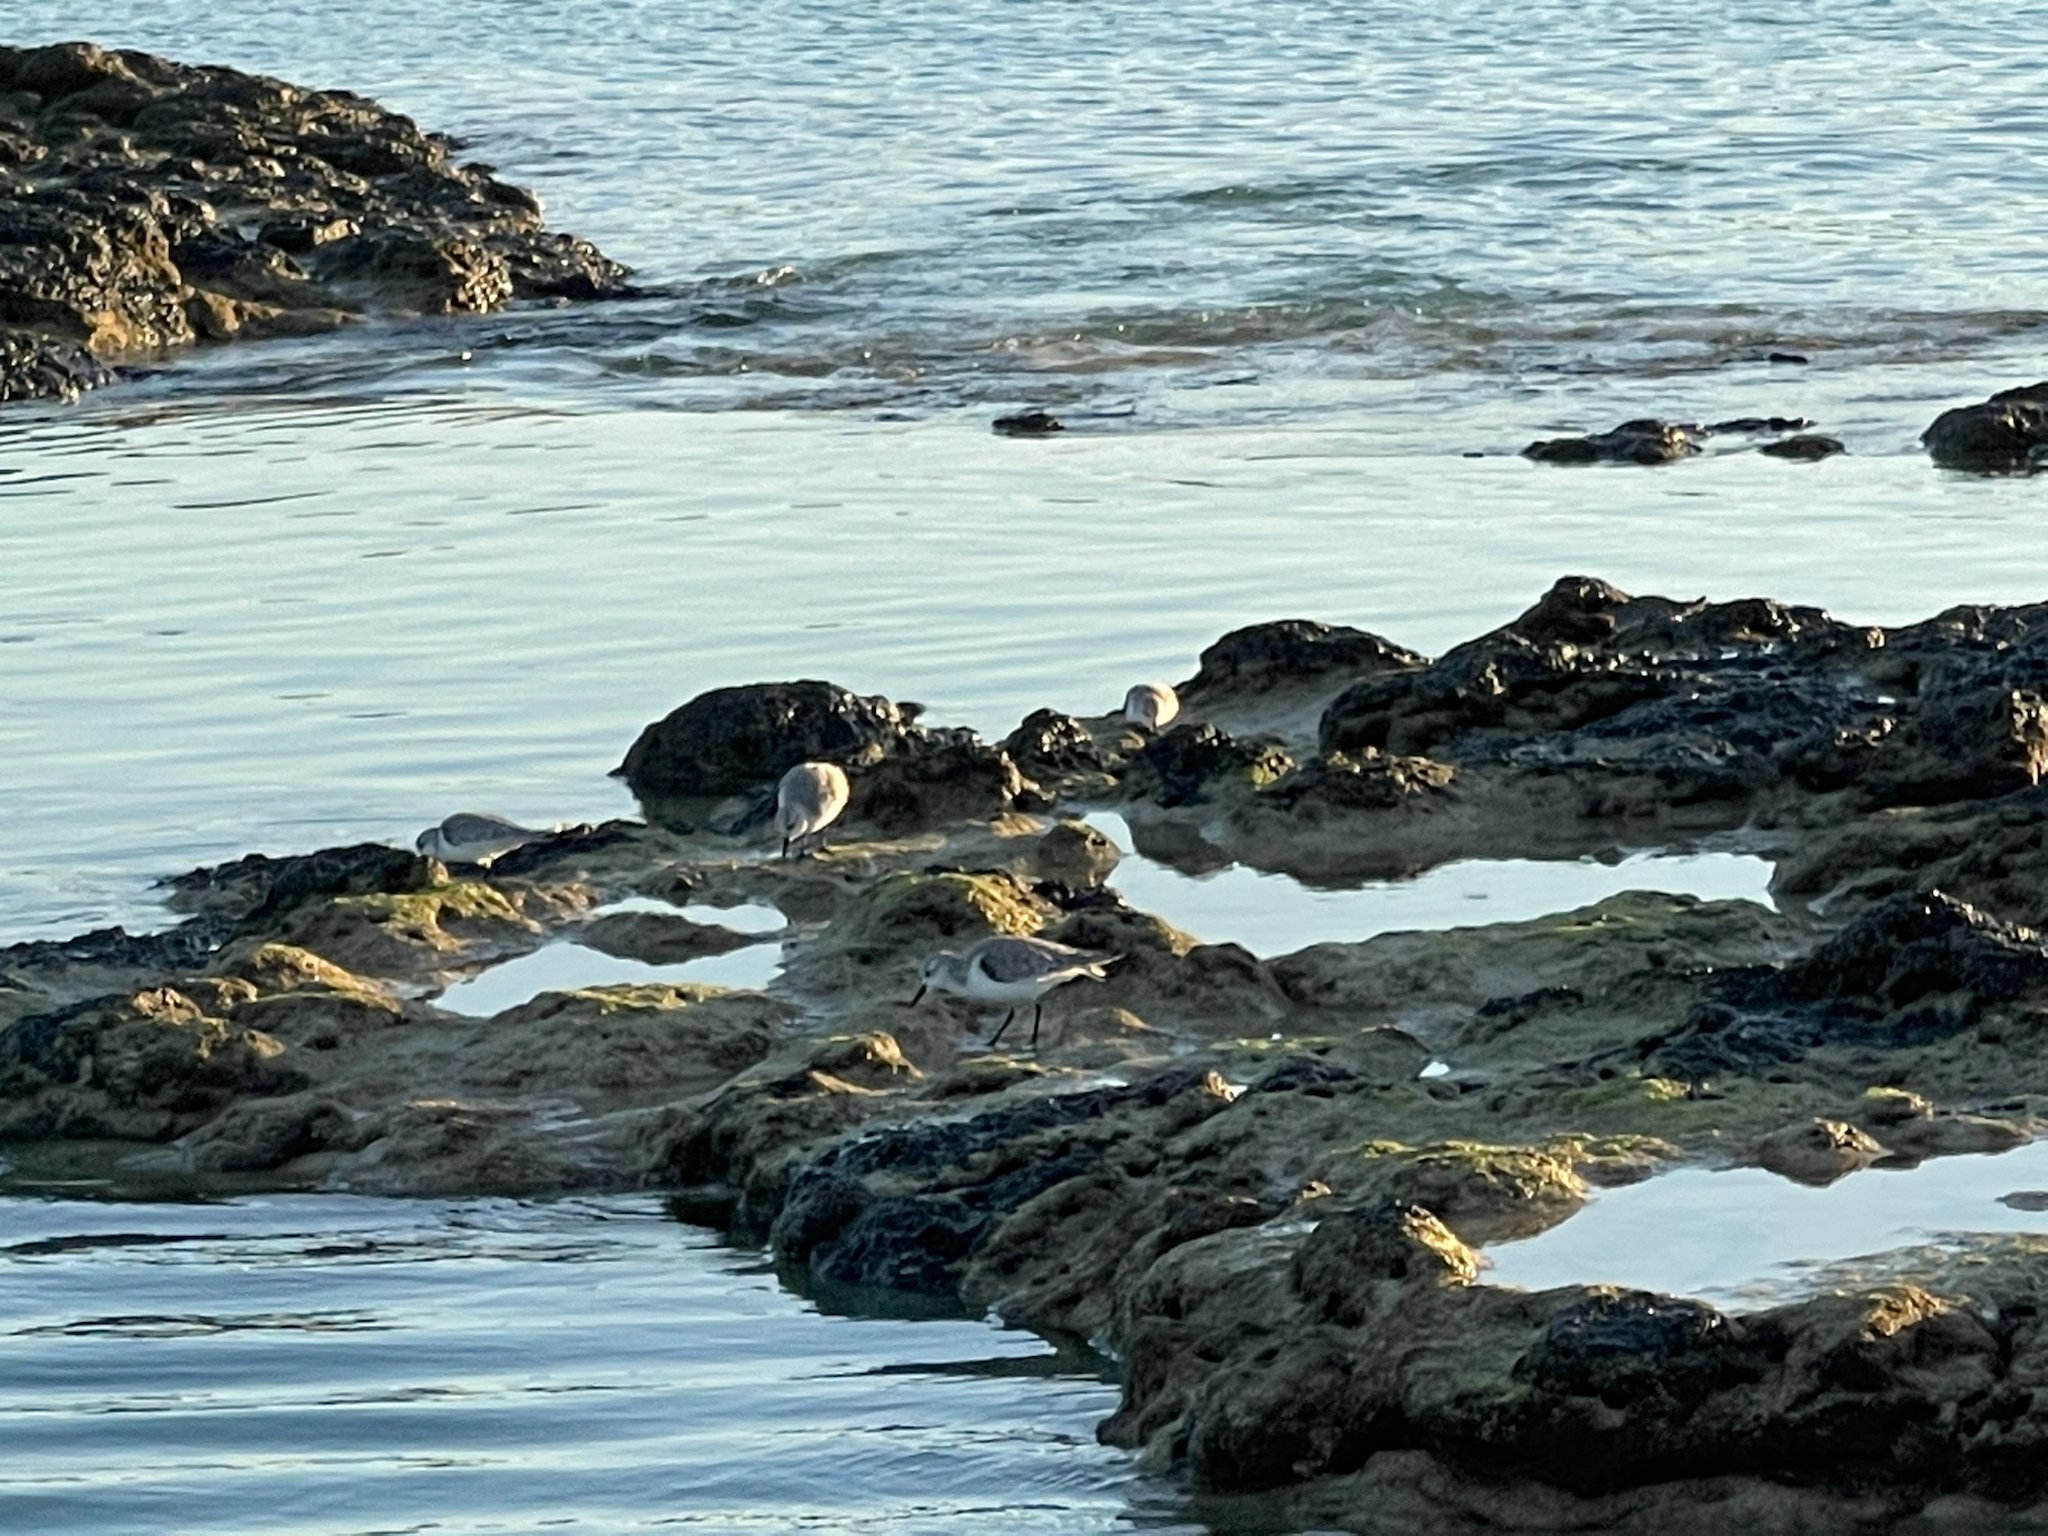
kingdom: Animalia
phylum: Chordata
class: Aves
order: Charadriiformes
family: Scolopacidae
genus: Calidris
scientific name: Calidris alba
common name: Sanderling
